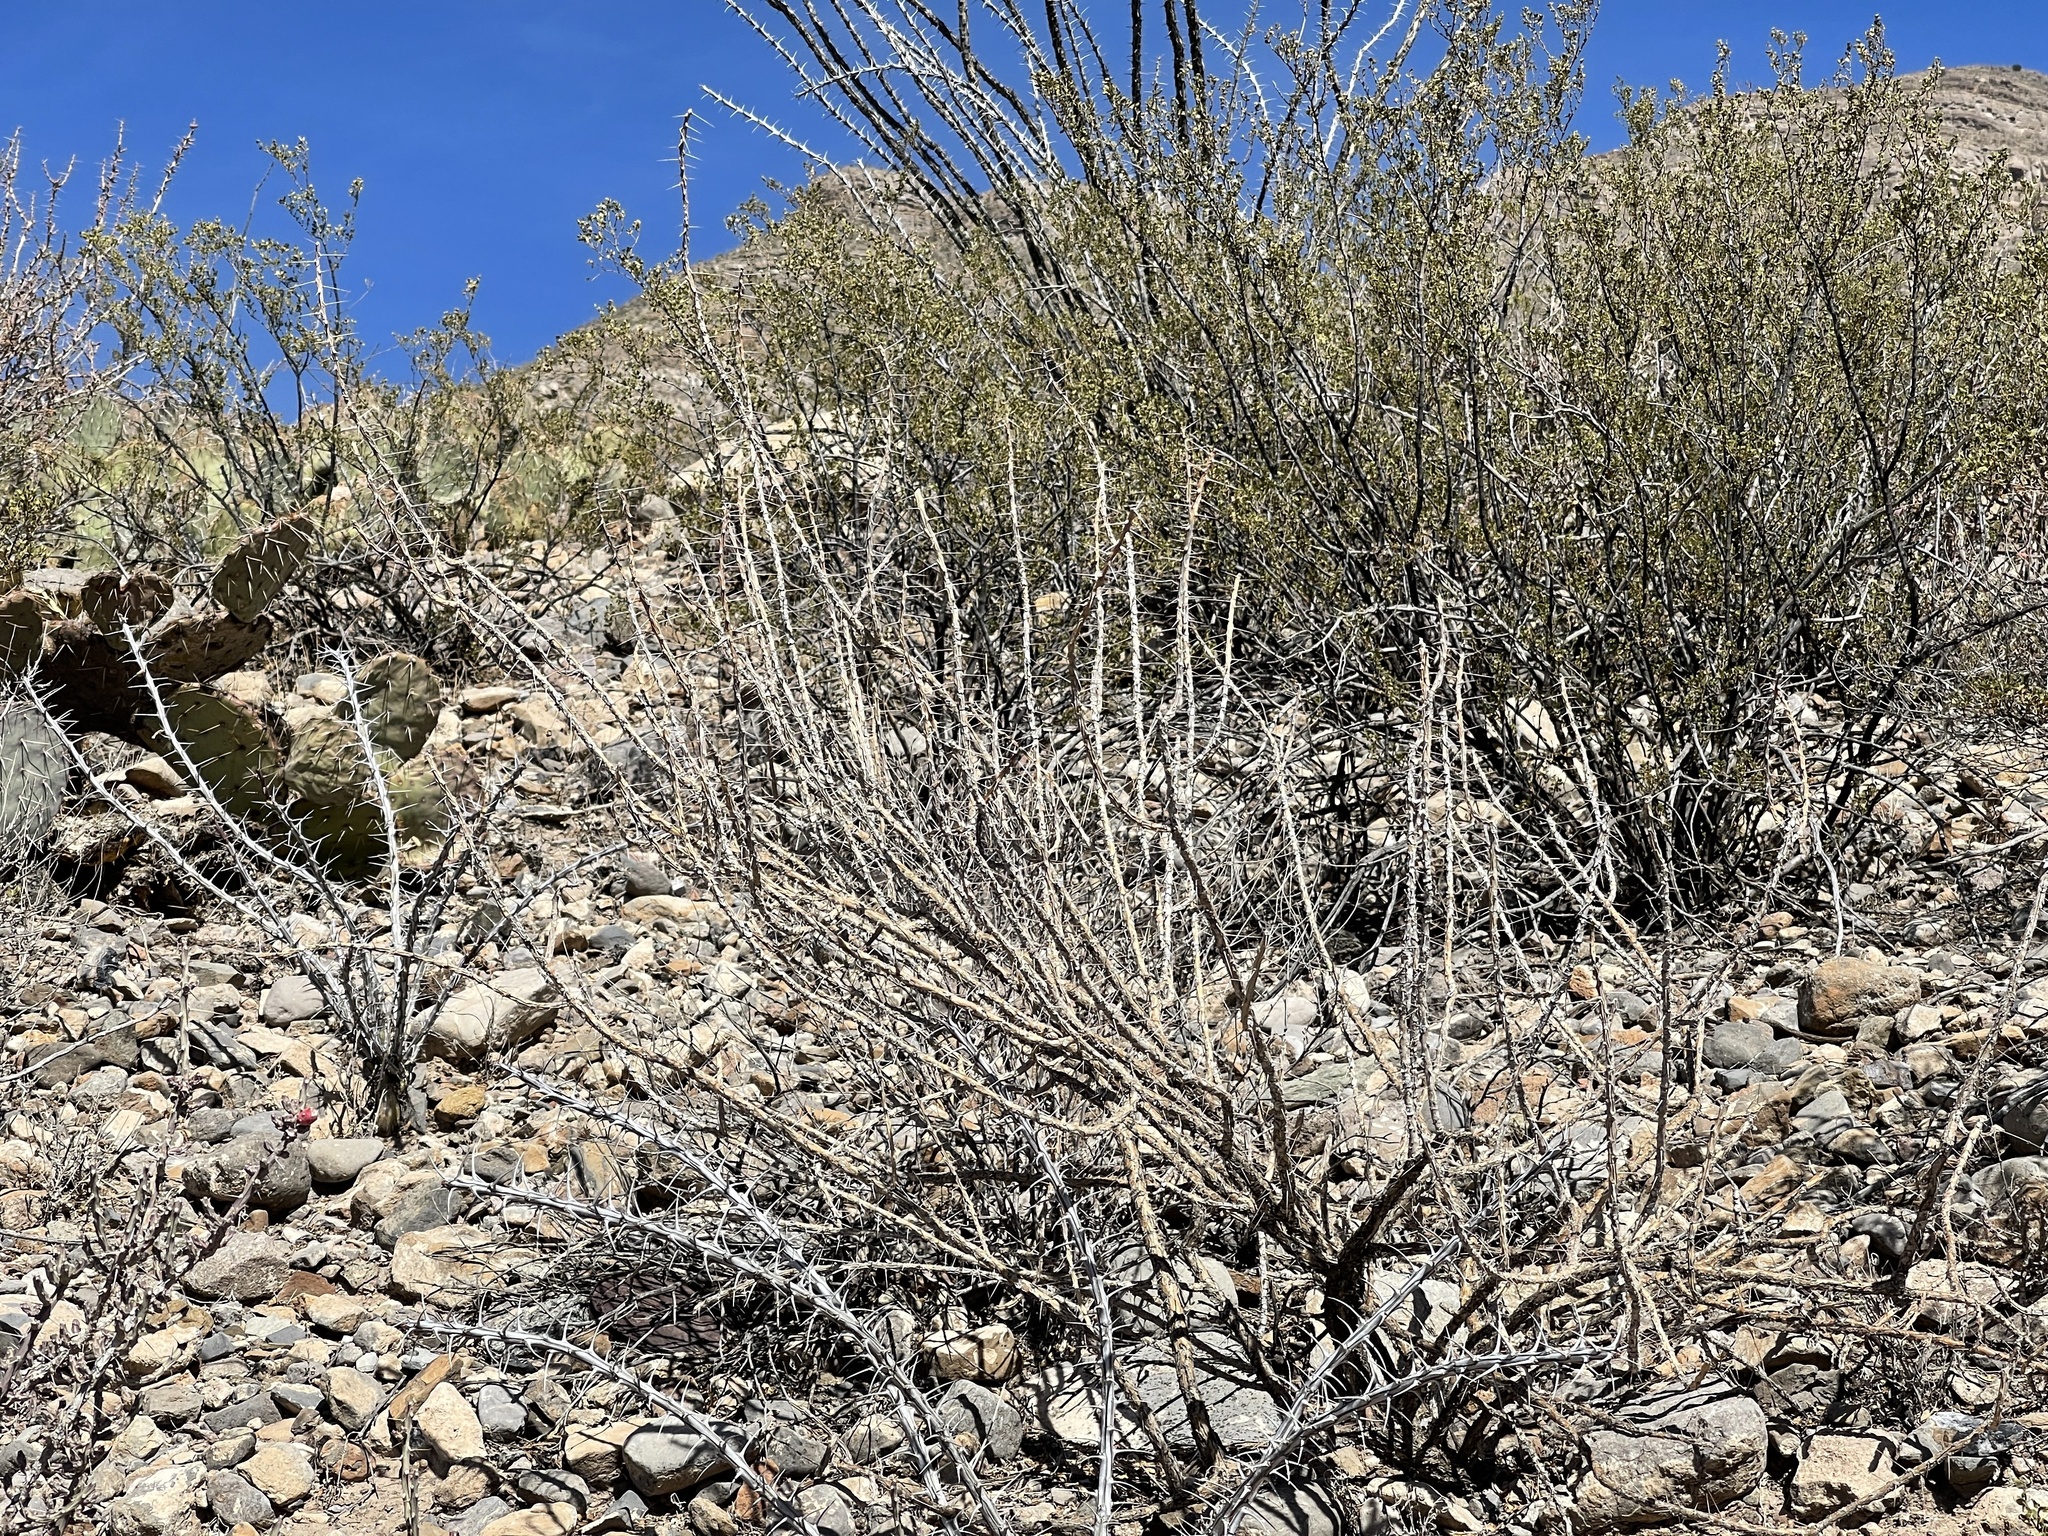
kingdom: Plantae
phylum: Tracheophyta
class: Magnoliopsida
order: Caryophyllales
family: Cactaceae
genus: Cylindropuntia
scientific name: Cylindropuntia leptocaulis
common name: Christmas cactus
